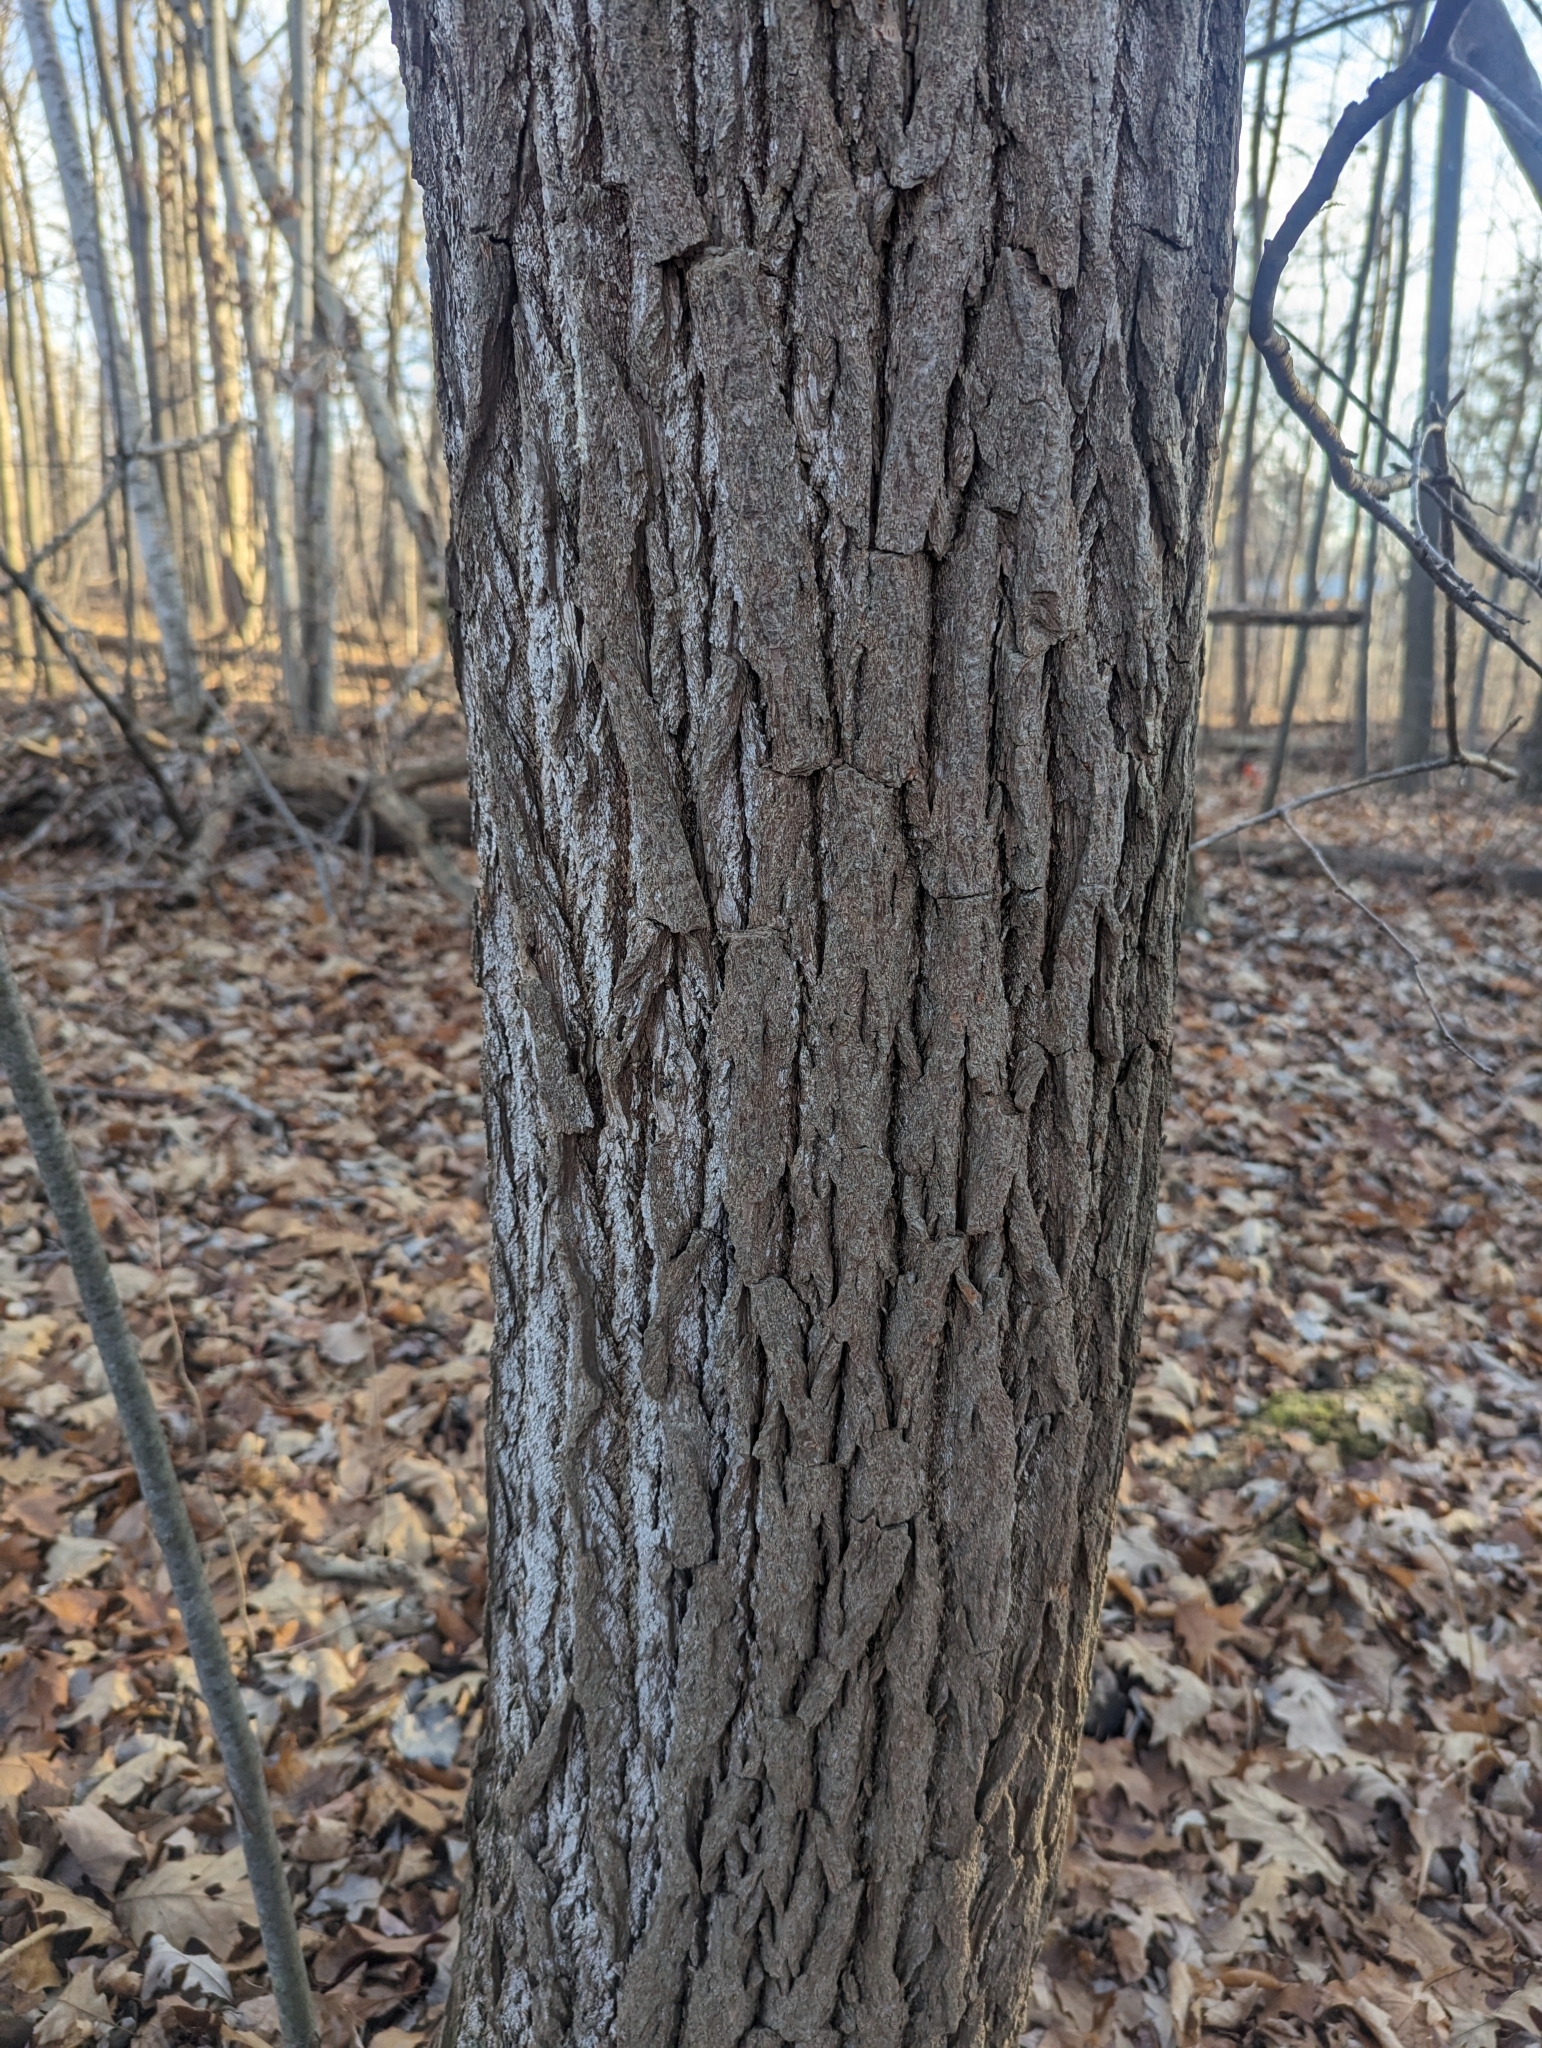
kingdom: Plantae
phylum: Tracheophyta
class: Magnoliopsida
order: Laurales
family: Lauraceae
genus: Sassafras
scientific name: Sassafras albidum
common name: Sassafras
